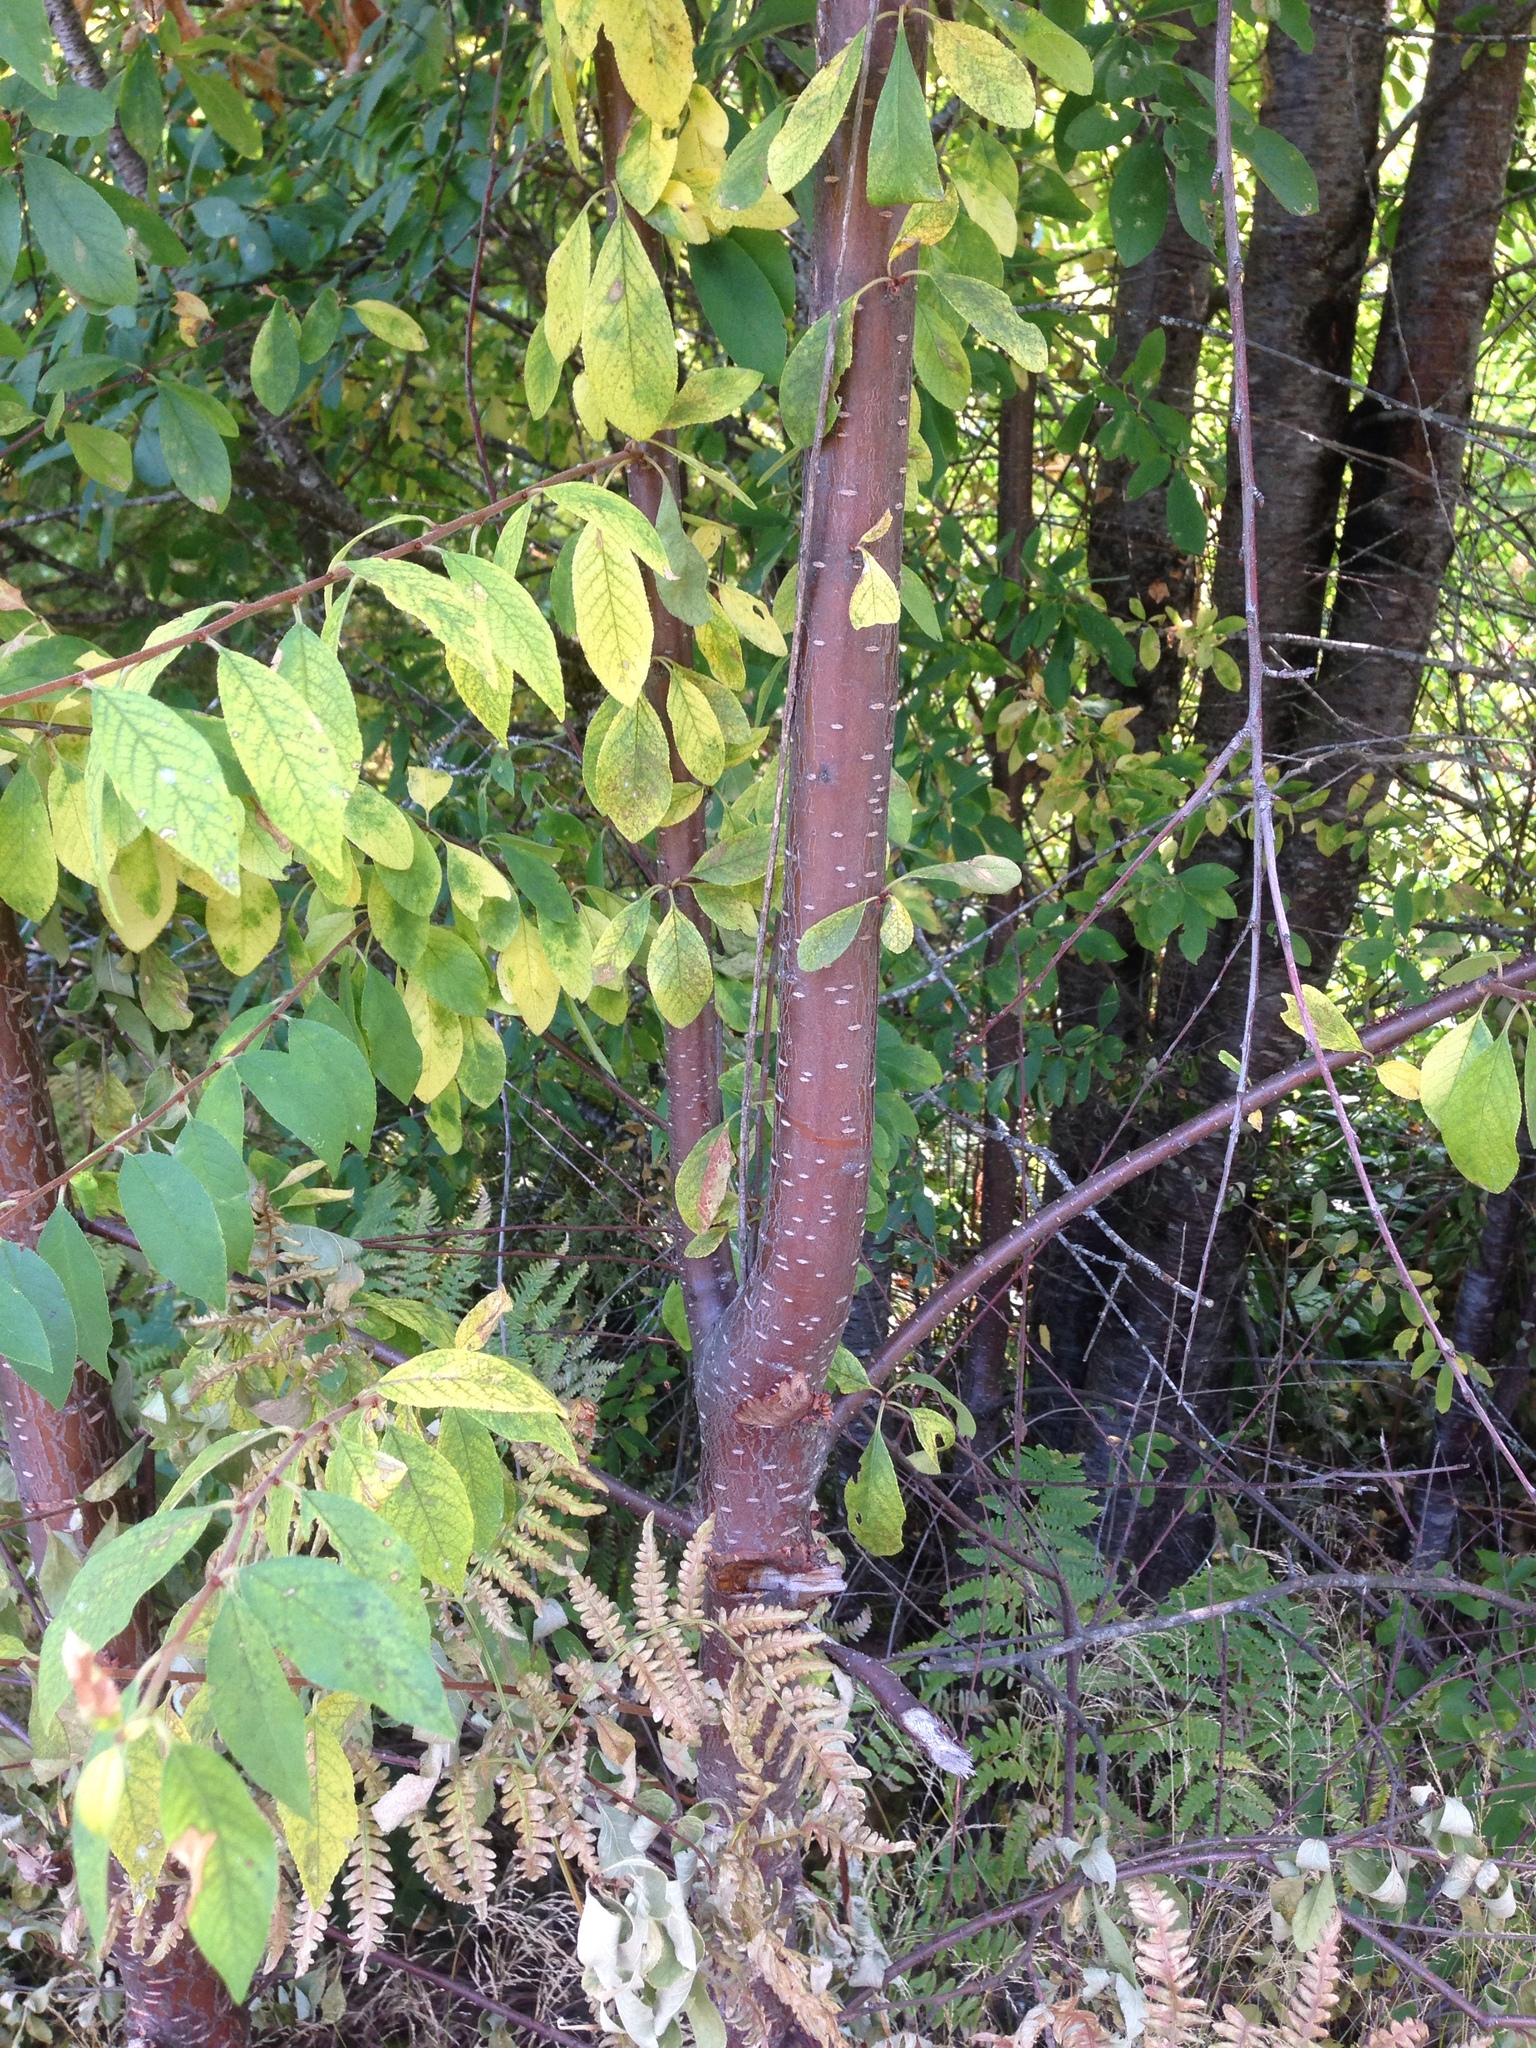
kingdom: Plantae
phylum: Tracheophyta
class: Magnoliopsida
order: Rosales
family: Rosaceae
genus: Prunus
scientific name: Prunus emarginata
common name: Bitter cherry
